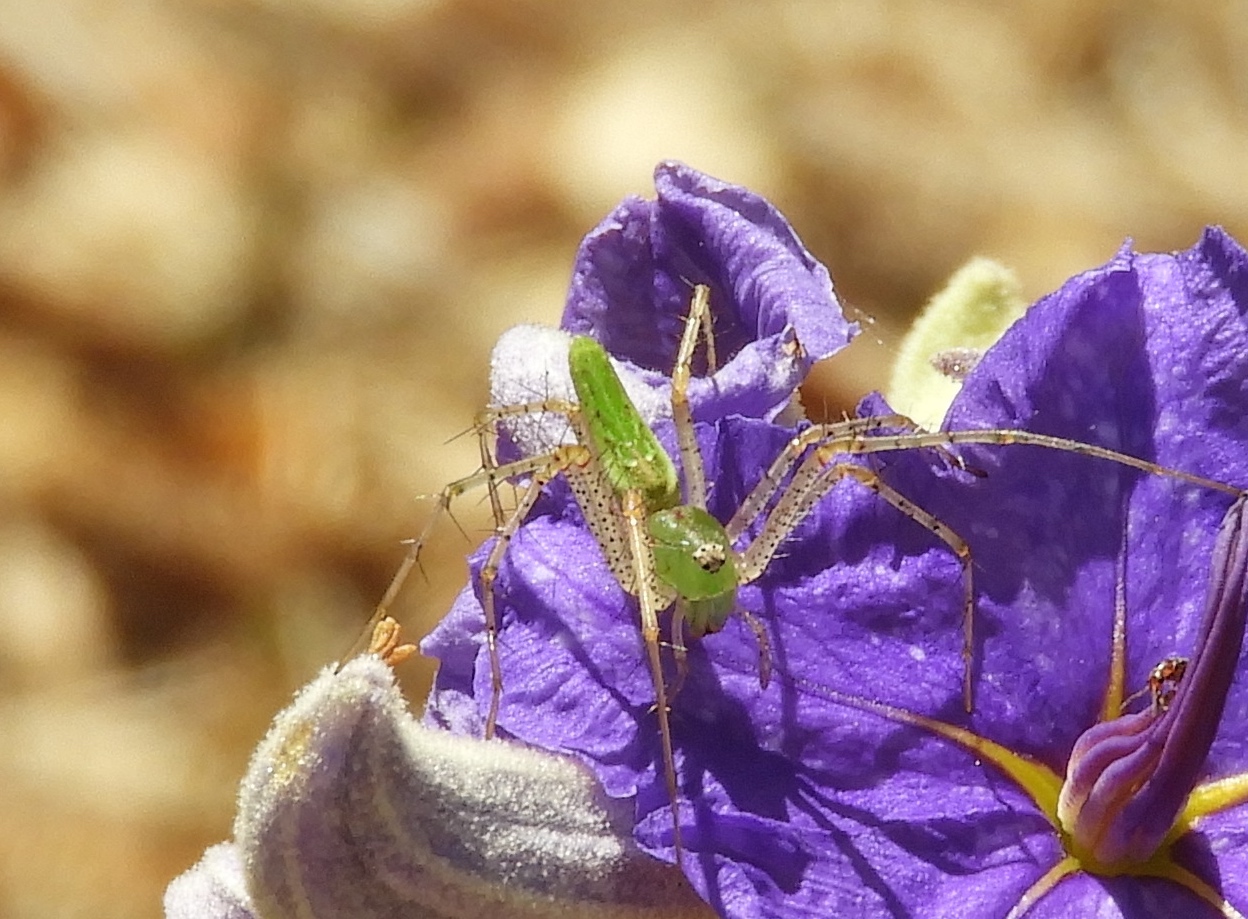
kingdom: Animalia
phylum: Arthropoda
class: Arachnida
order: Araneae
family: Oxyopidae
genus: Peucetia
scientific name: Peucetia viridans
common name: Lynx spiders
